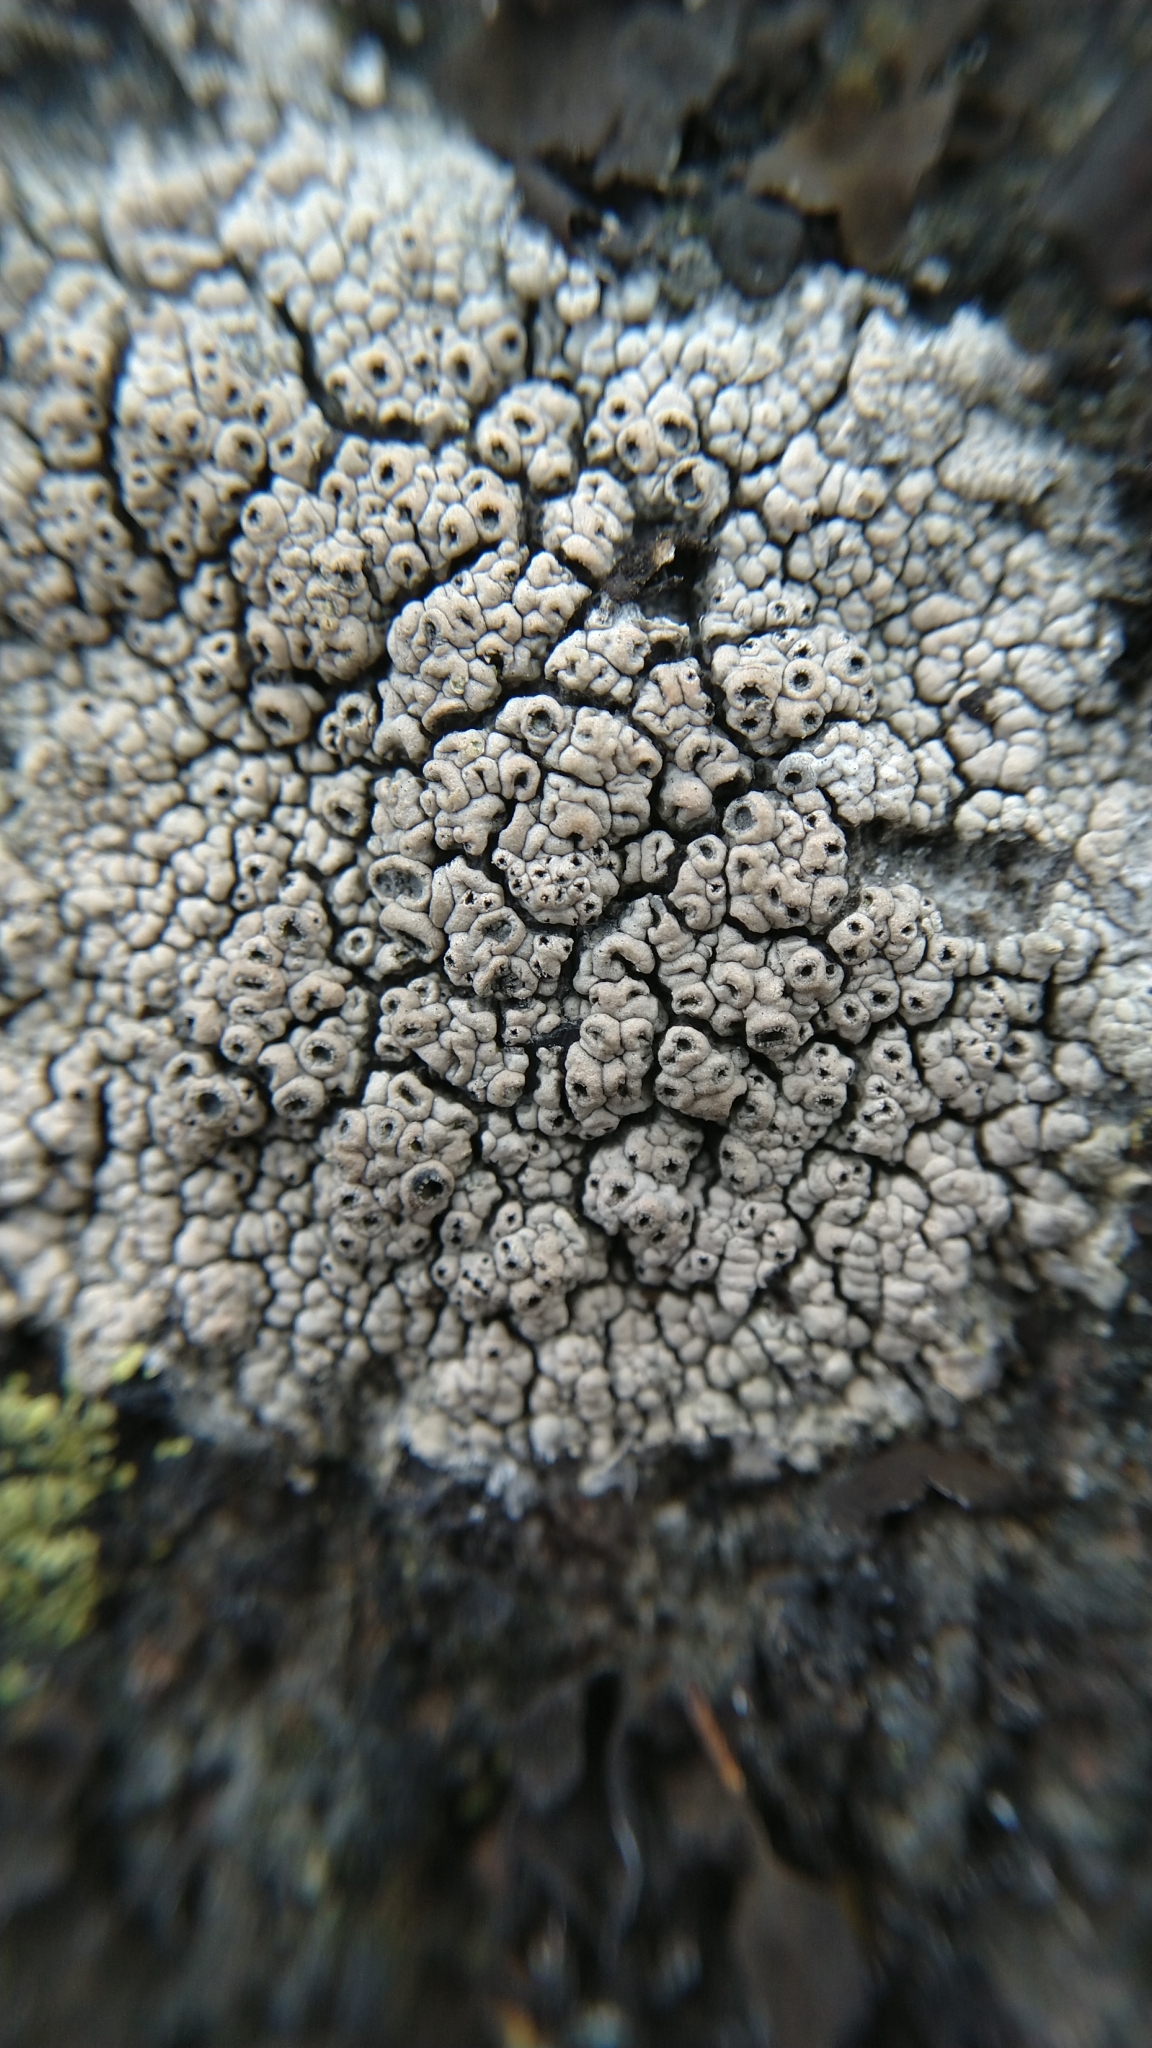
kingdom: Fungi
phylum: Ascomycota
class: Lecanoromycetes
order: Ostropales
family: Graphidaceae
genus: Diploschistes
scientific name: Diploschistes scruposus
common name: Crater lichen
